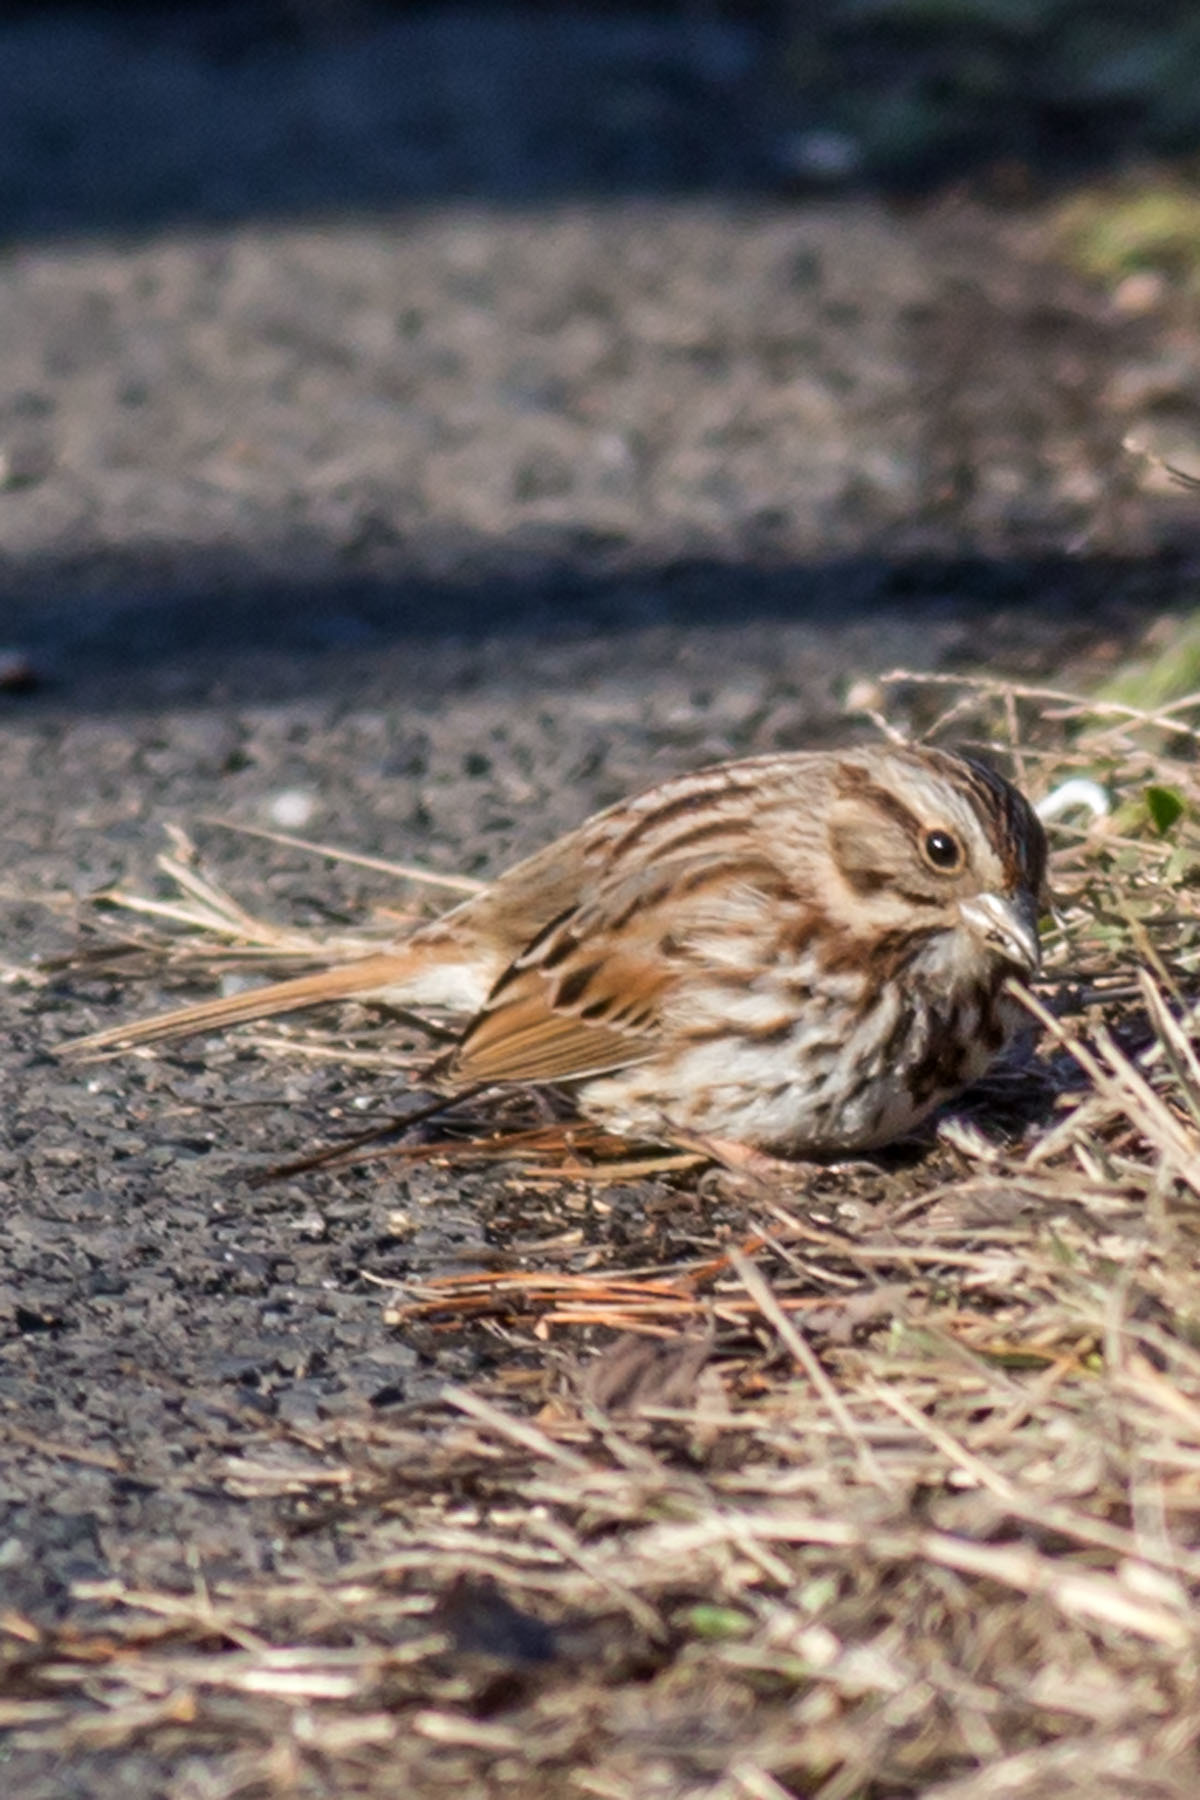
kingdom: Animalia
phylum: Chordata
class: Aves
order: Passeriformes
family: Passerellidae
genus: Melospiza
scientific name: Melospiza melodia
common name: Song sparrow
